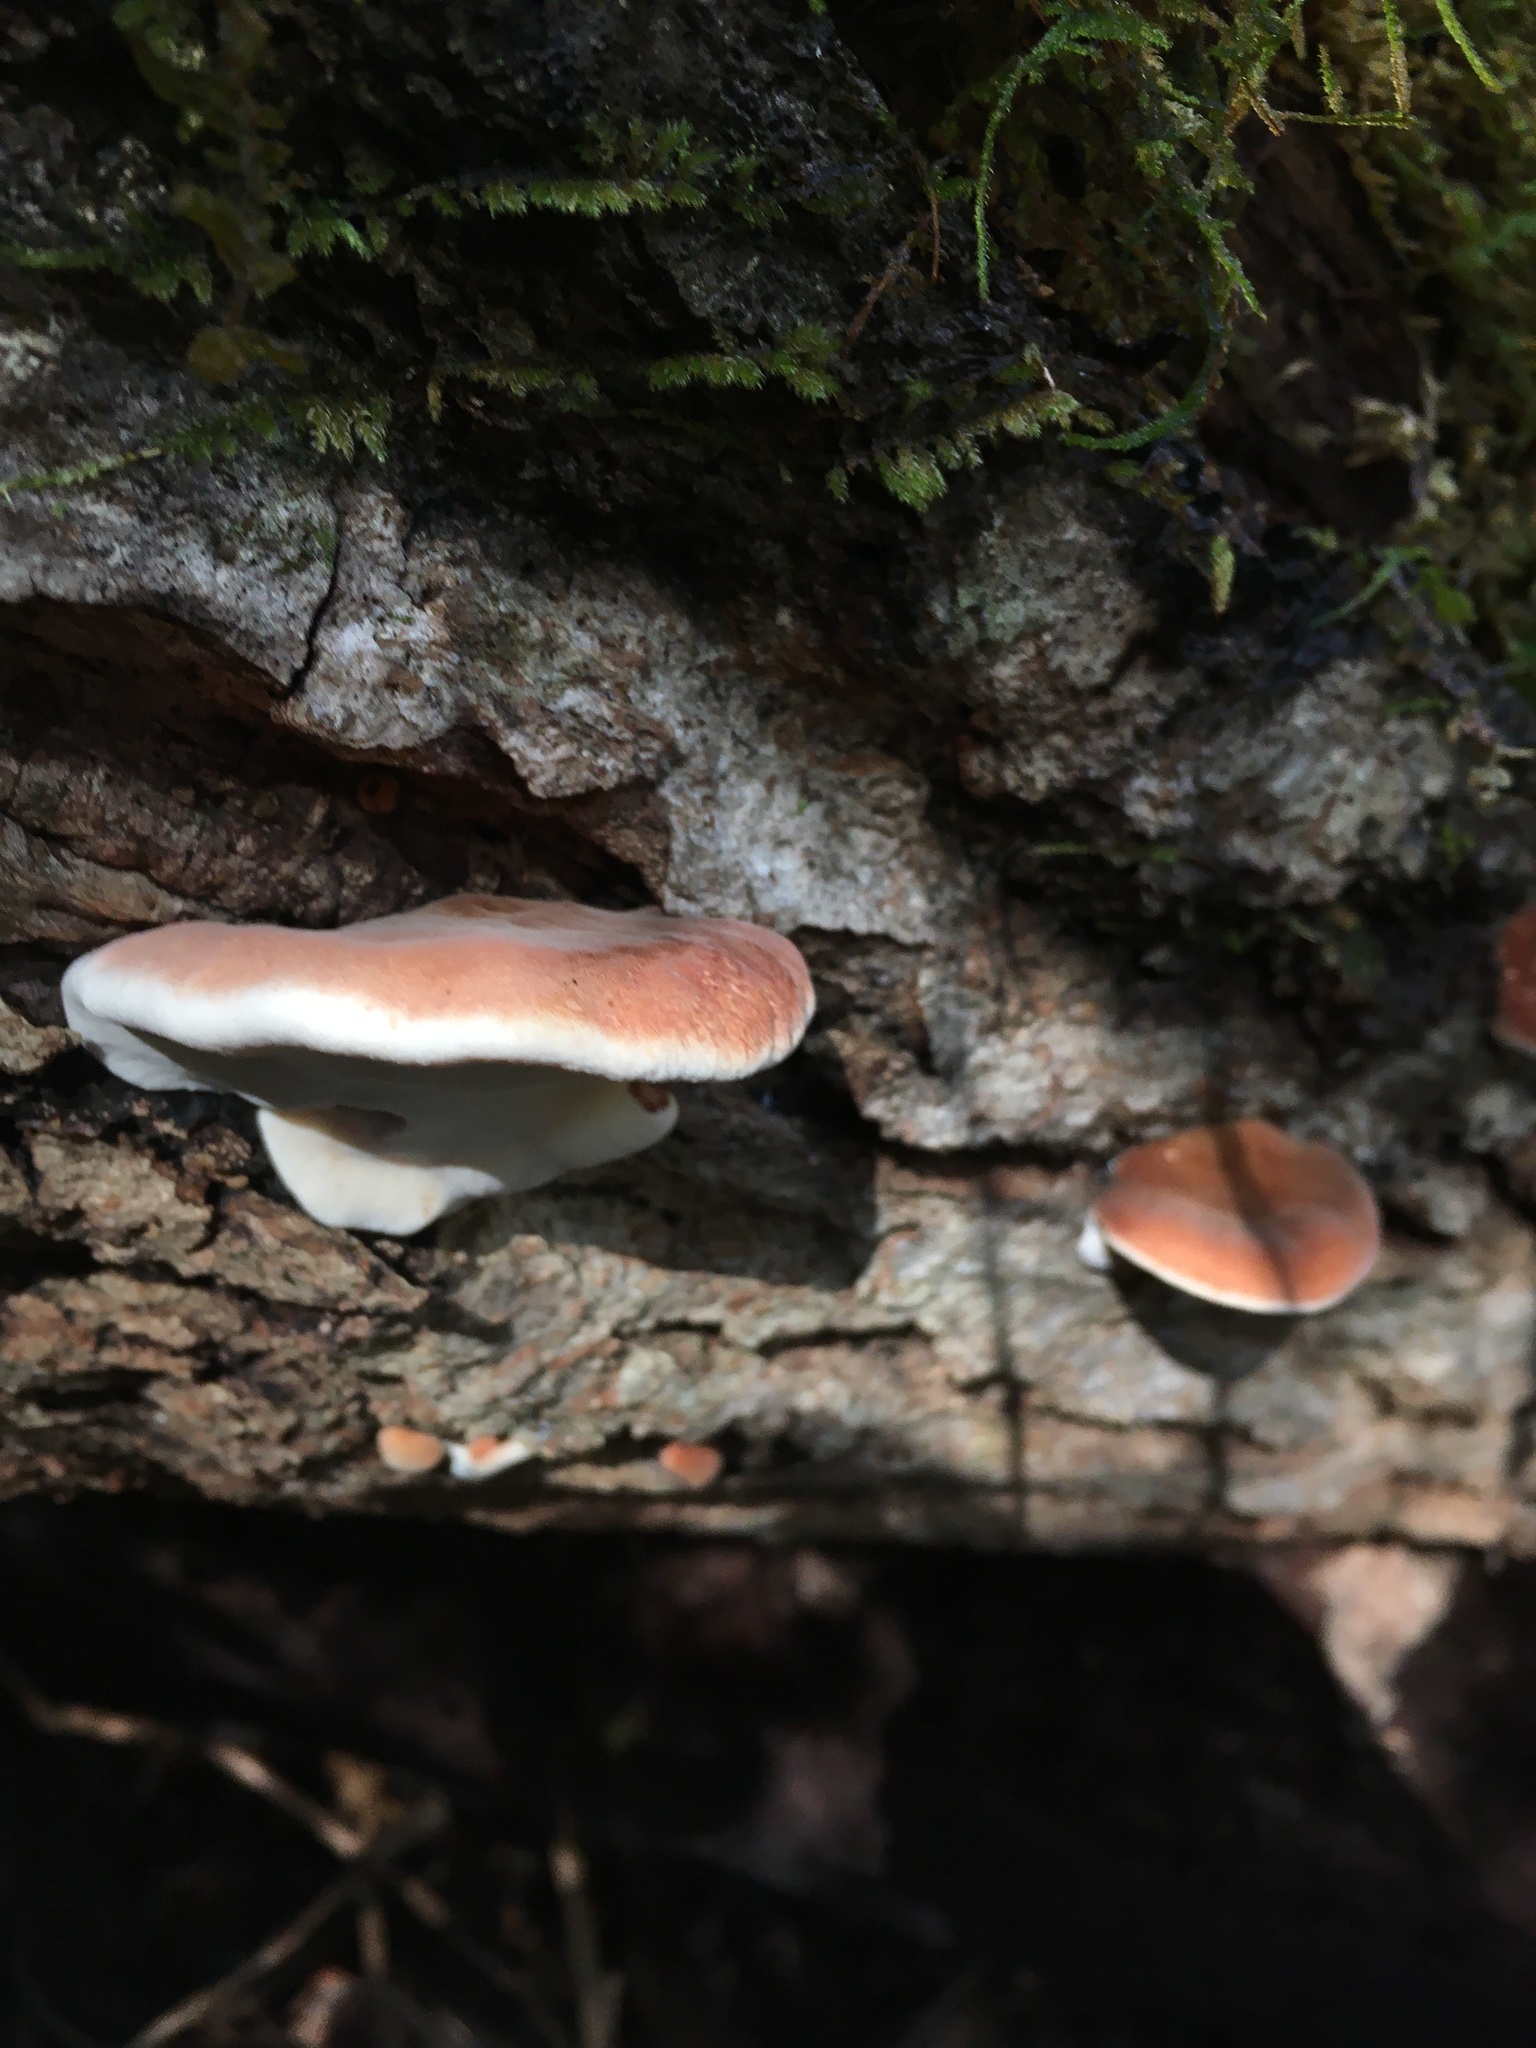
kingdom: Fungi
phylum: Basidiomycota
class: Agaricomycetes
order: Polyporales
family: Ischnodermataceae
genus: Ischnoderma
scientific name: Ischnoderma resinosum
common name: Resinous polypore
